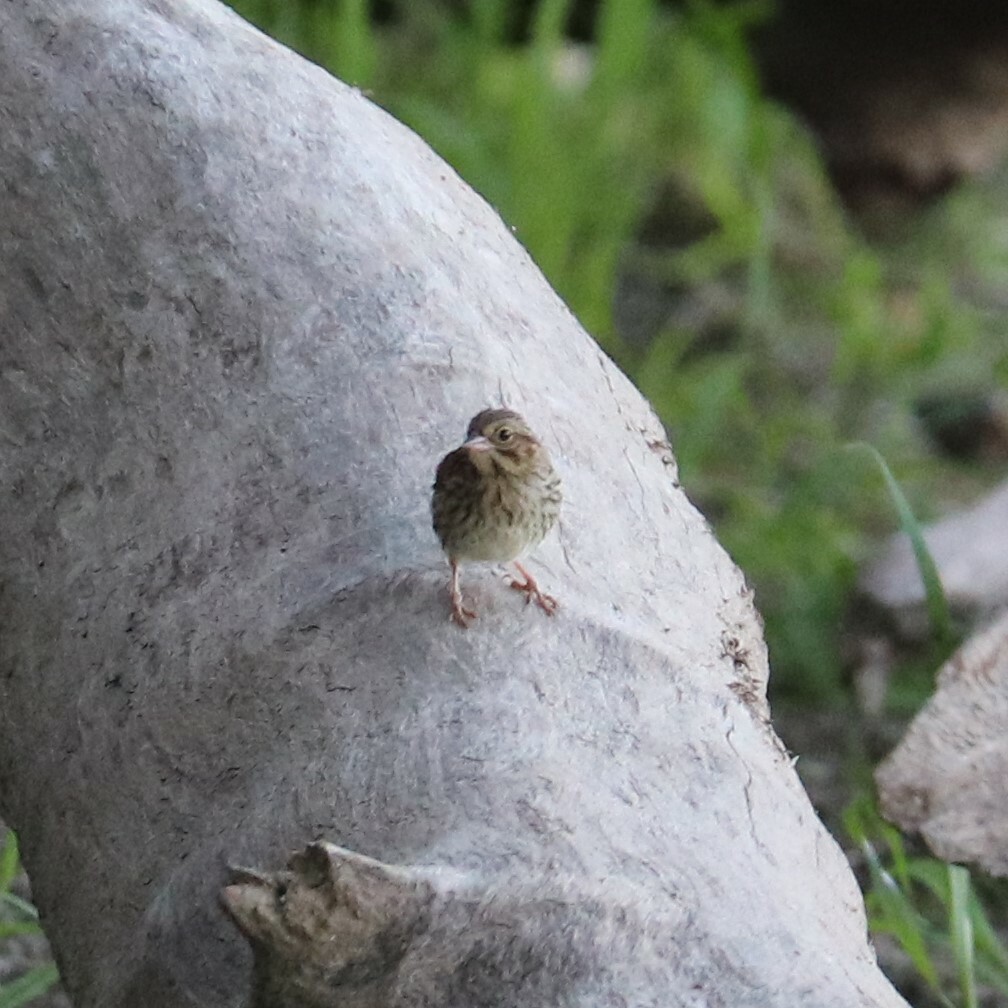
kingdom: Animalia
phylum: Chordata
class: Aves
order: Passeriformes
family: Passerellidae
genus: Melospiza
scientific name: Melospiza lincolnii
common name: Lincoln's sparrow
